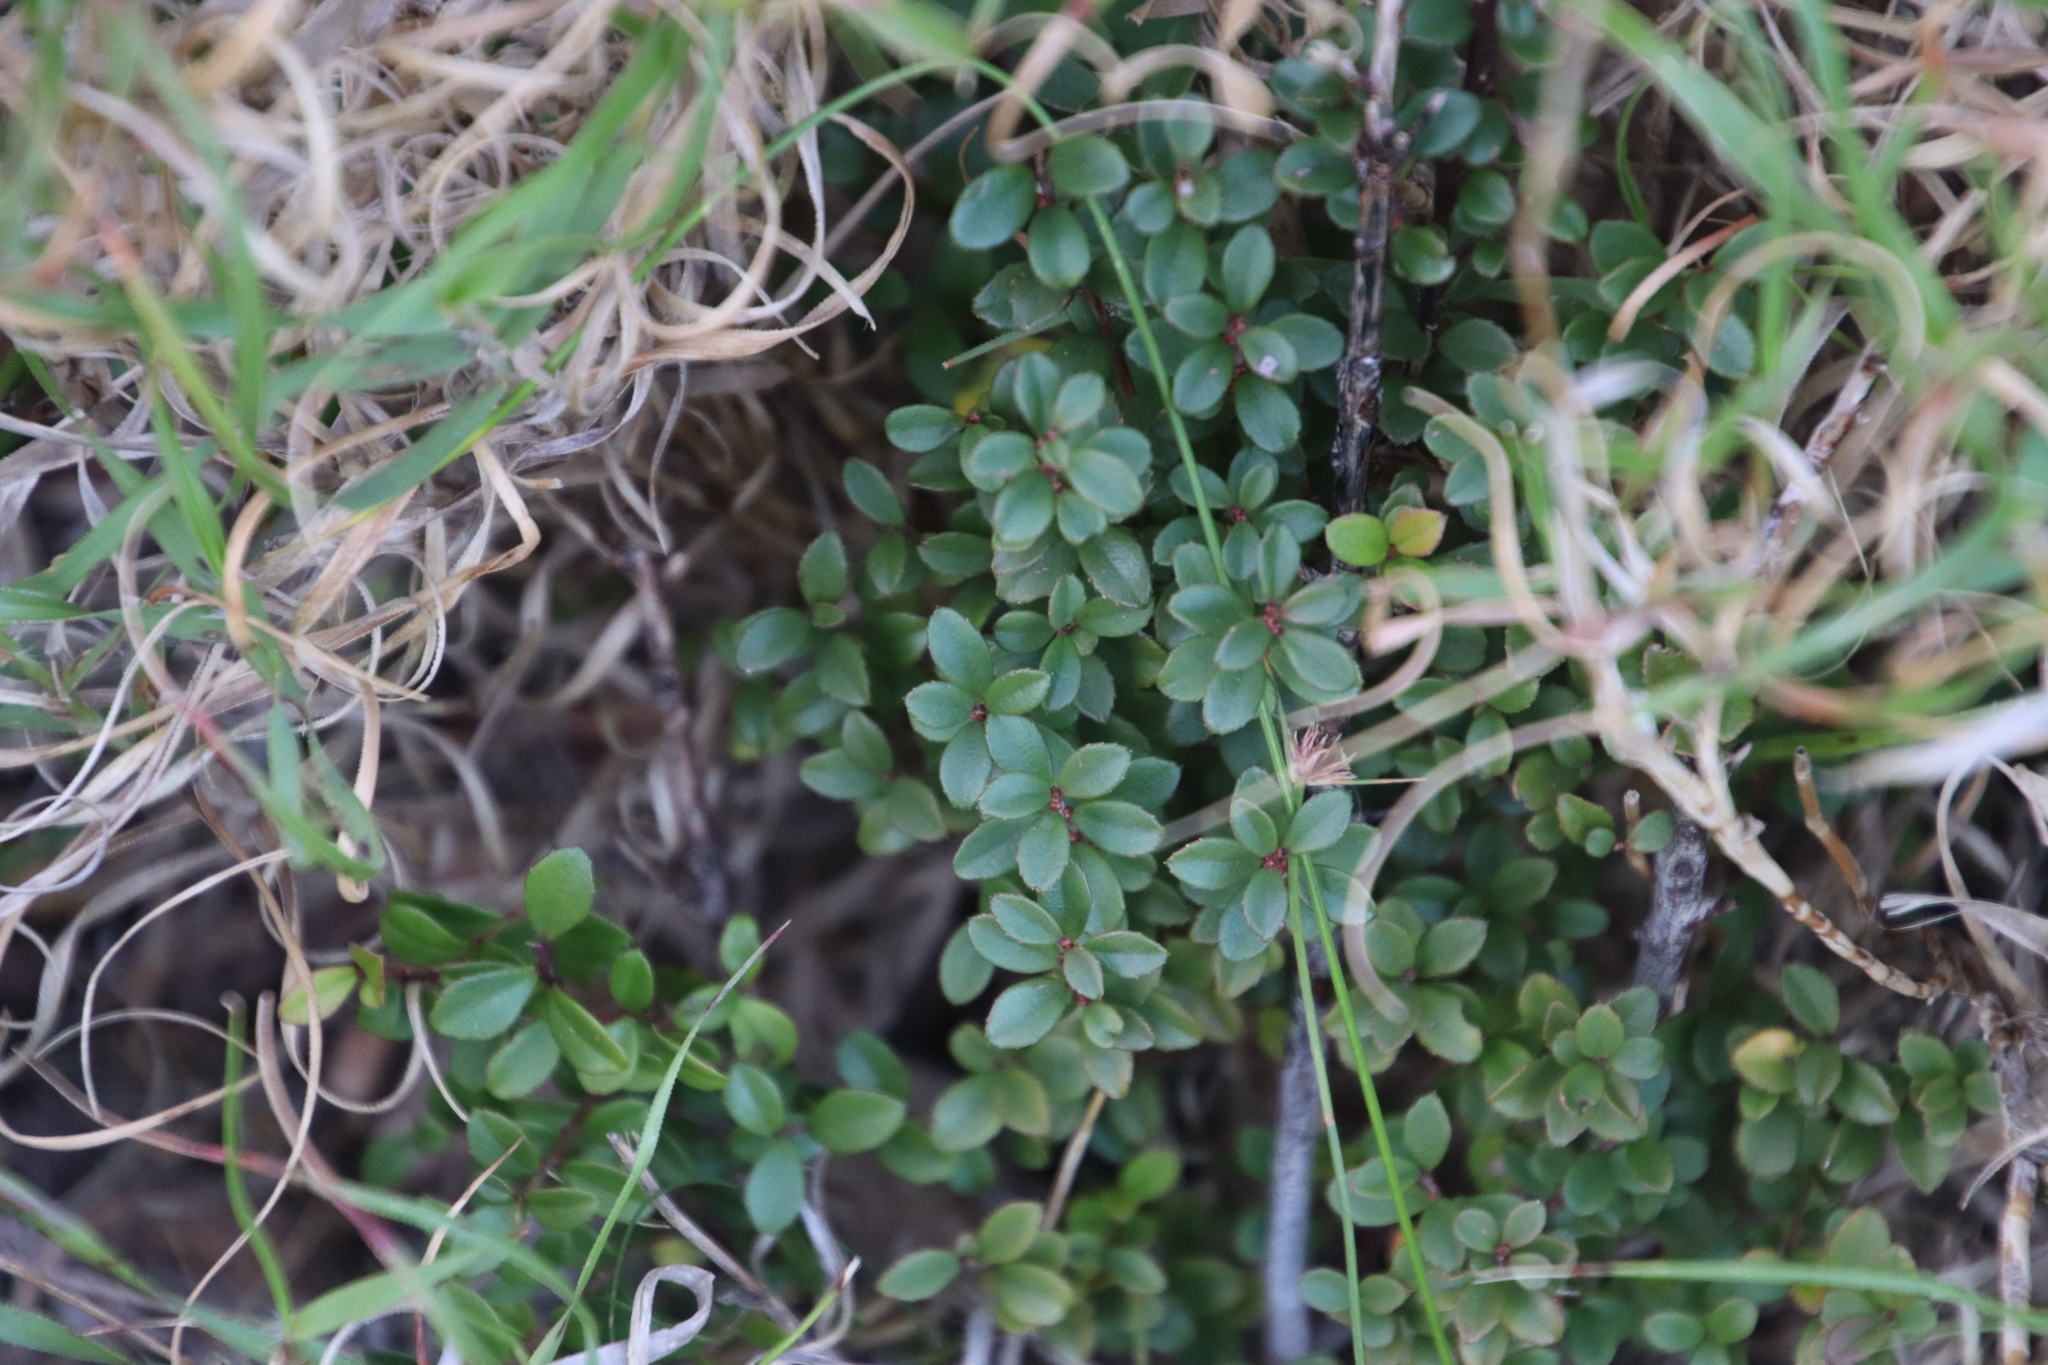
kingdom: Plantae
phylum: Tracheophyta
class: Magnoliopsida
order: Ericales
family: Primulaceae
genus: Myrsine
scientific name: Myrsine africana
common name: African-boxwood
